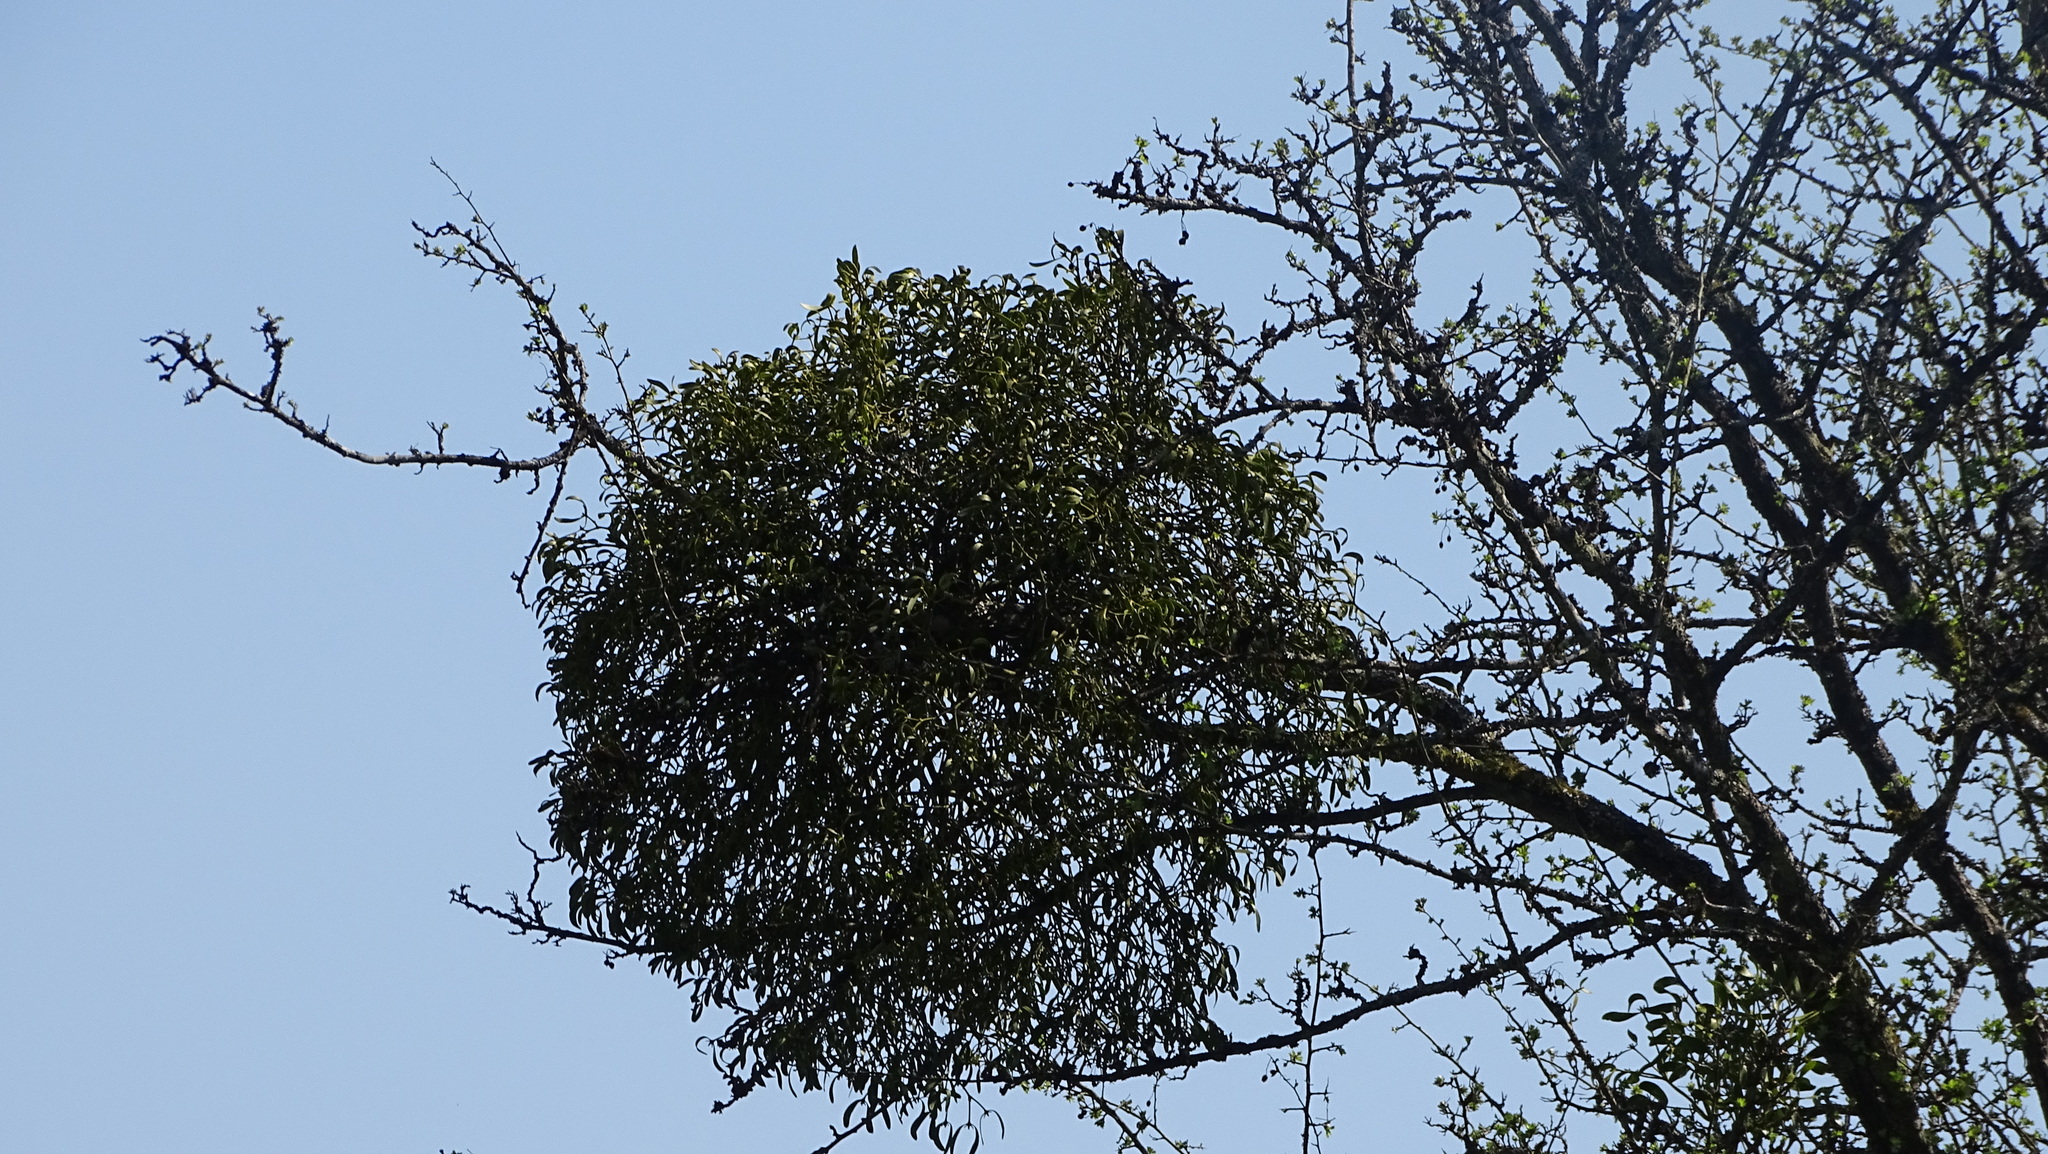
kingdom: Plantae
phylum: Tracheophyta
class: Magnoliopsida
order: Santalales
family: Viscaceae
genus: Viscum
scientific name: Viscum album
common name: Mistletoe
